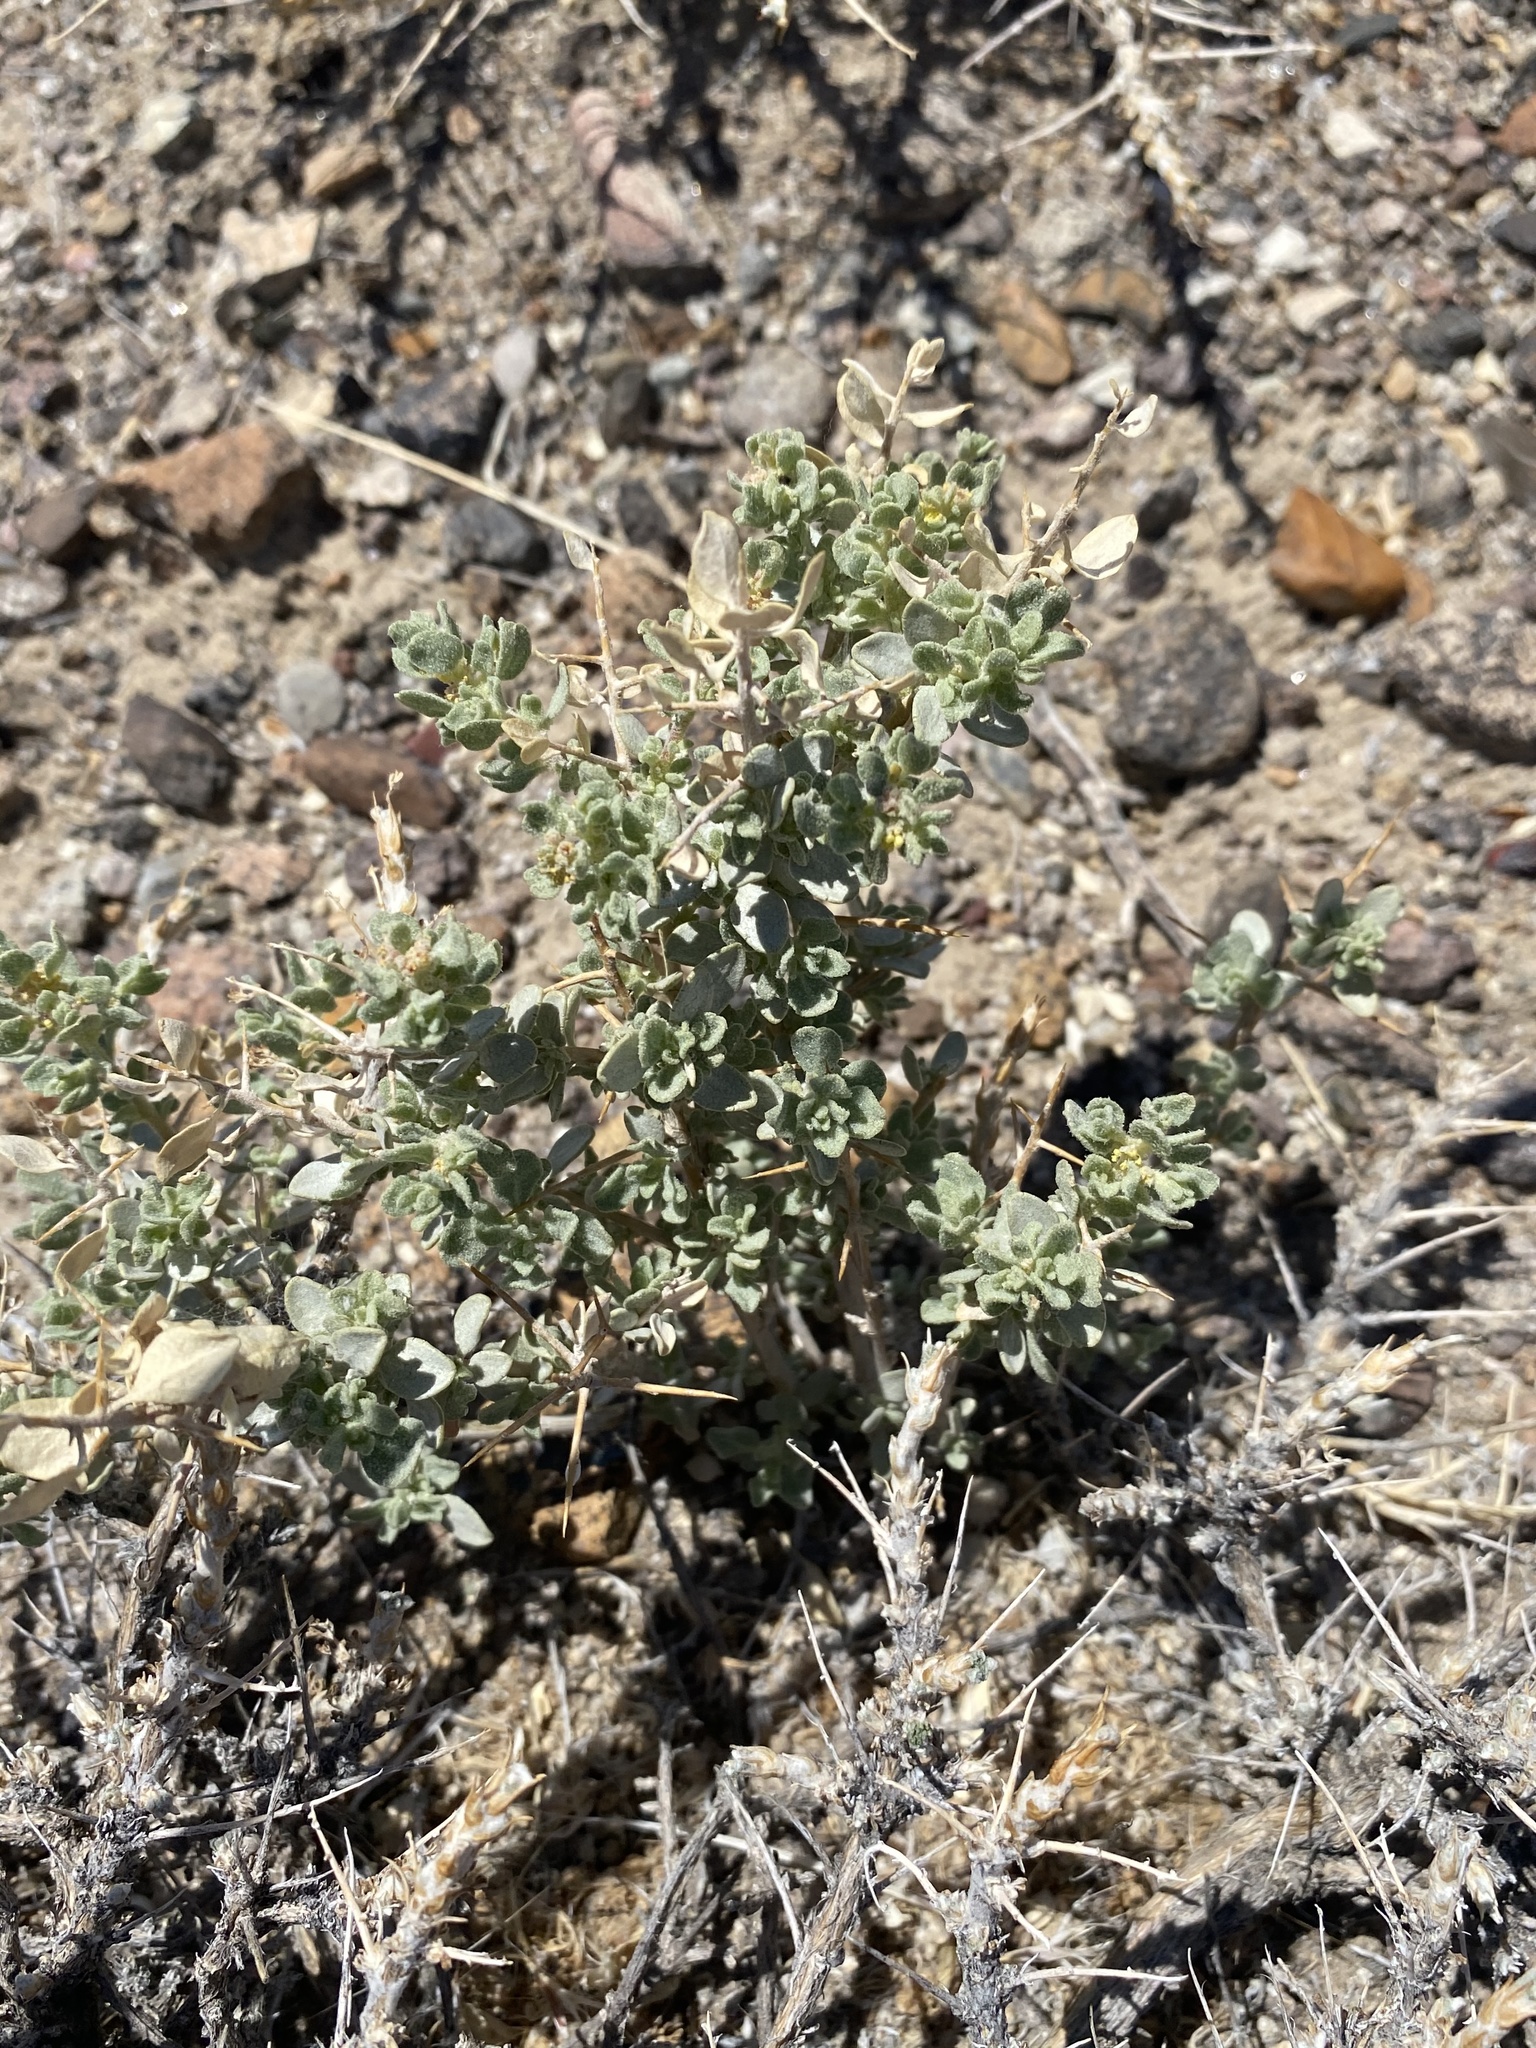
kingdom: Plantae
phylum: Tracheophyta
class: Magnoliopsida
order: Caryophyllales
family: Amaranthaceae
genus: Atriplex
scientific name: Atriplex confertifolia
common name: Shadscale
